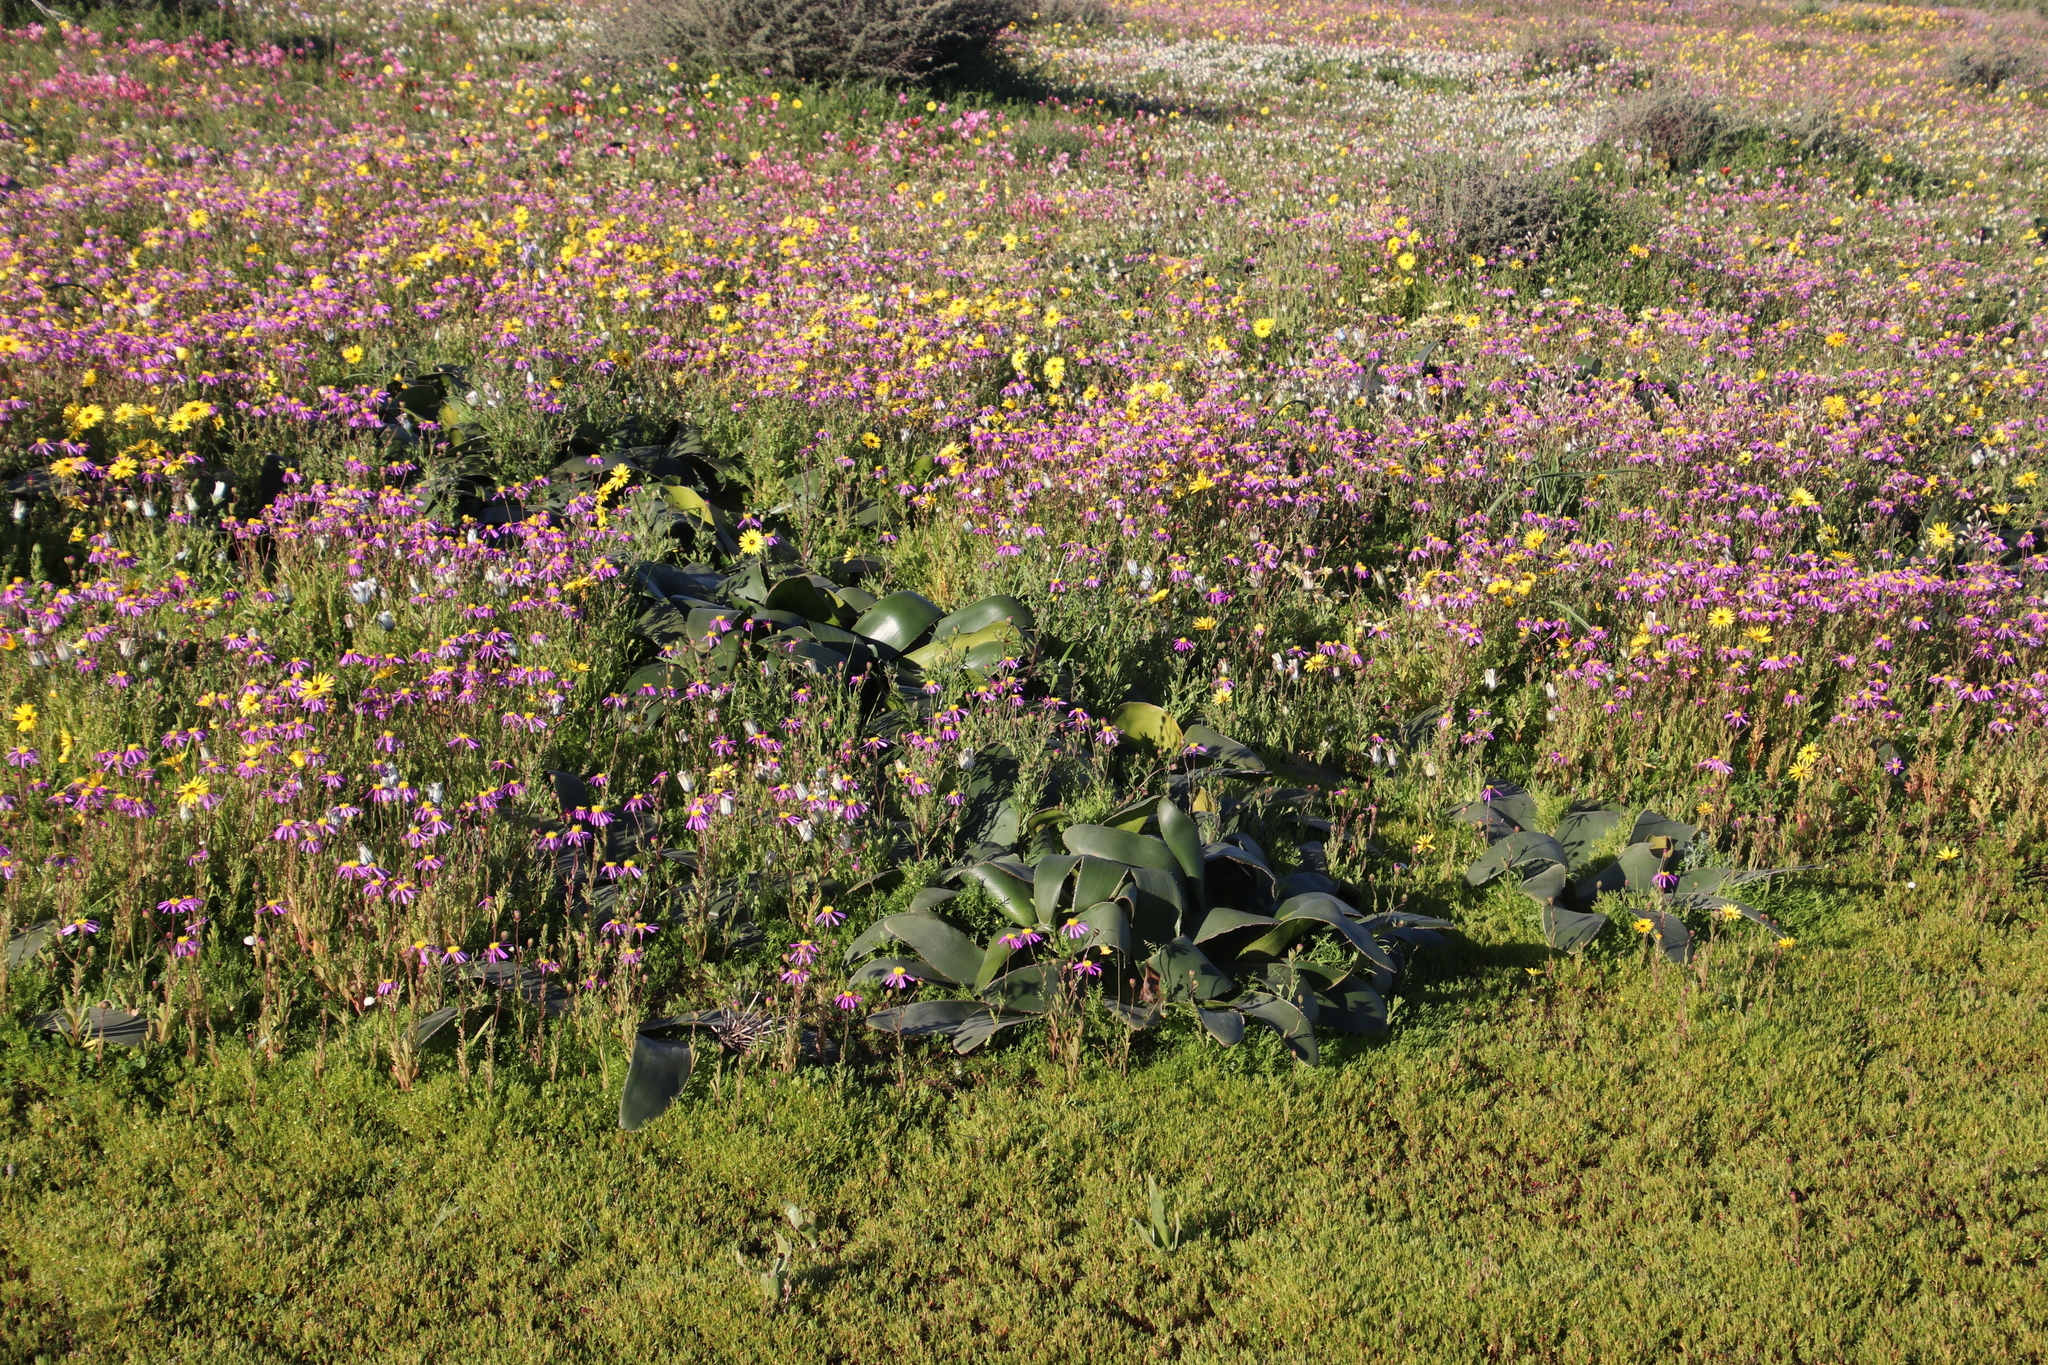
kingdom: Plantae
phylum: Tracheophyta
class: Liliopsida
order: Asparagales
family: Amaryllidaceae
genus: Crossyne
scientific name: Crossyne flava
